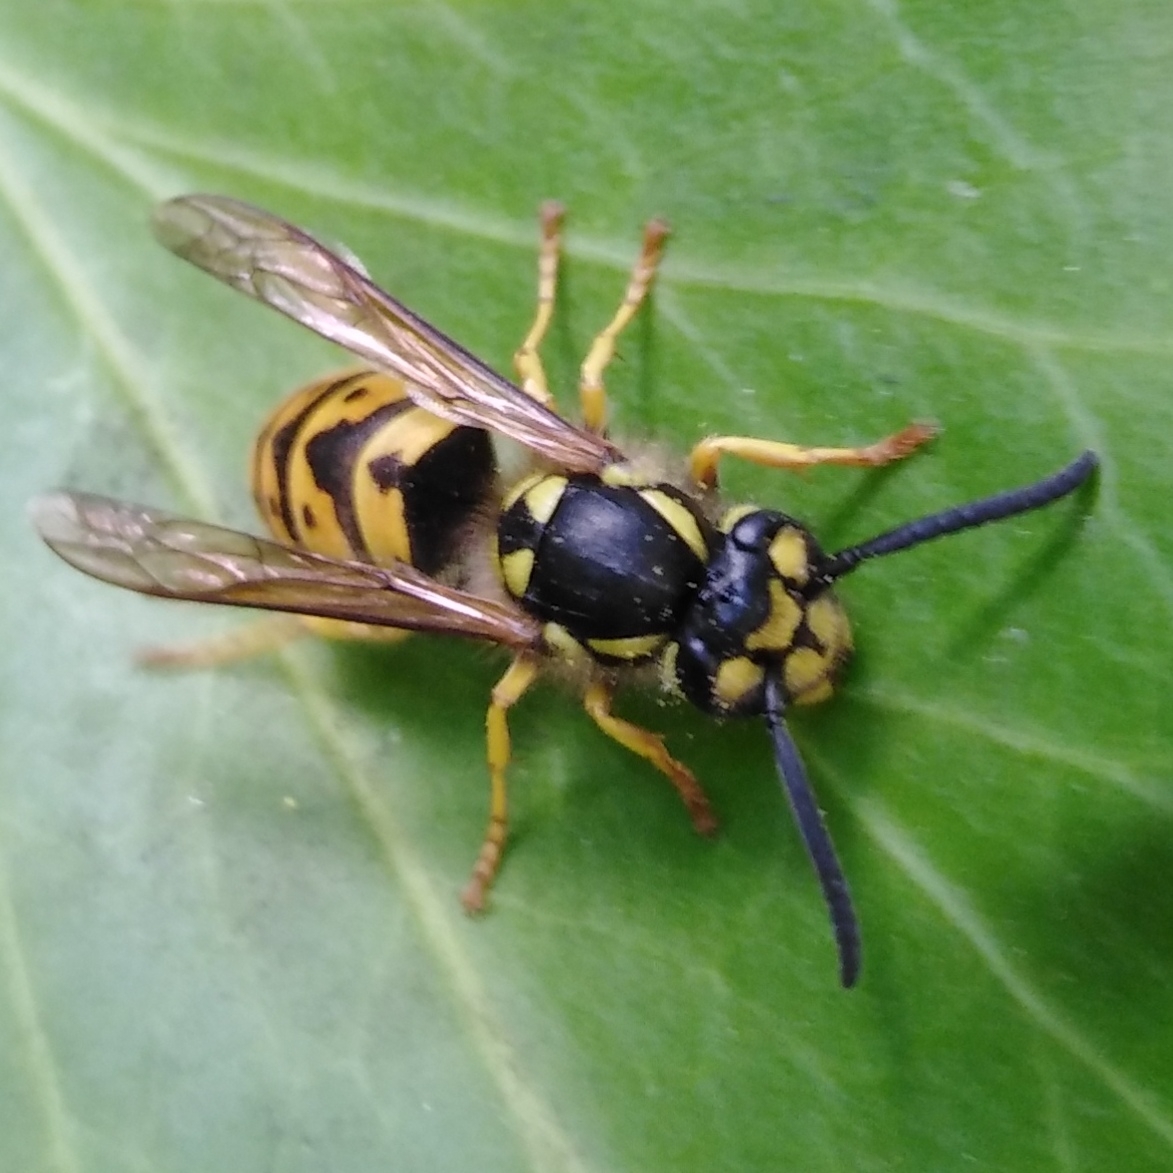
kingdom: Animalia
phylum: Arthropoda
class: Insecta
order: Hymenoptera
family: Vespidae
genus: Vespula
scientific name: Vespula germanica
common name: German wasp
